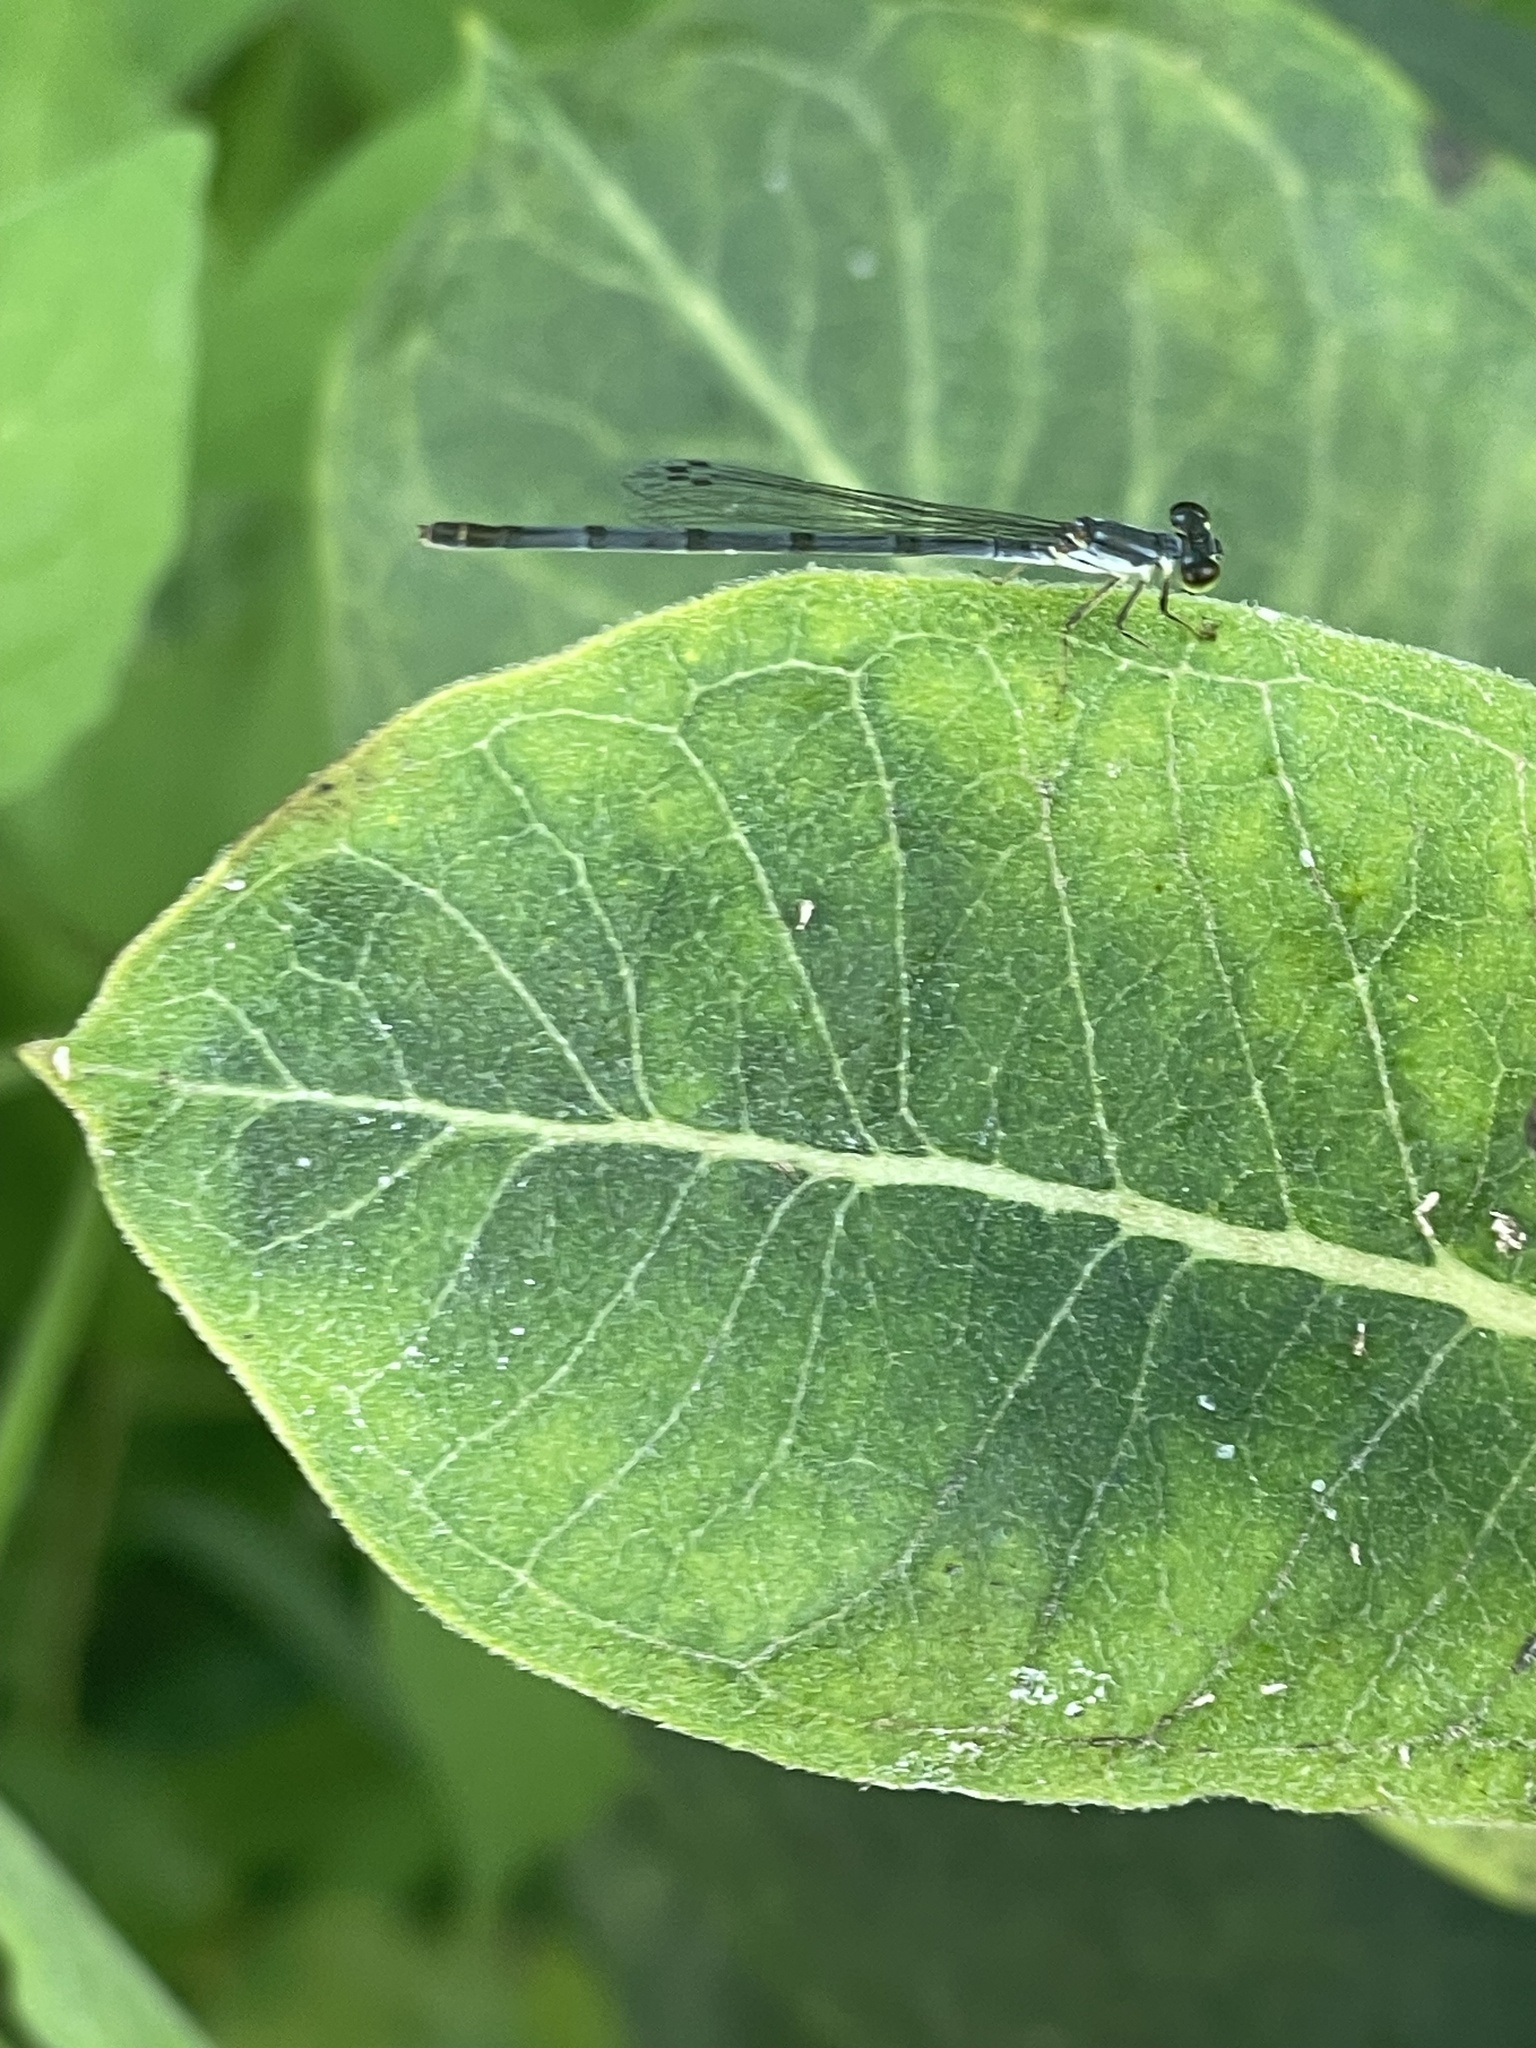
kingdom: Animalia
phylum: Arthropoda
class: Insecta
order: Odonata
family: Coenagrionidae
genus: Ischnura
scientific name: Ischnura posita
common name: Fragile forktail
